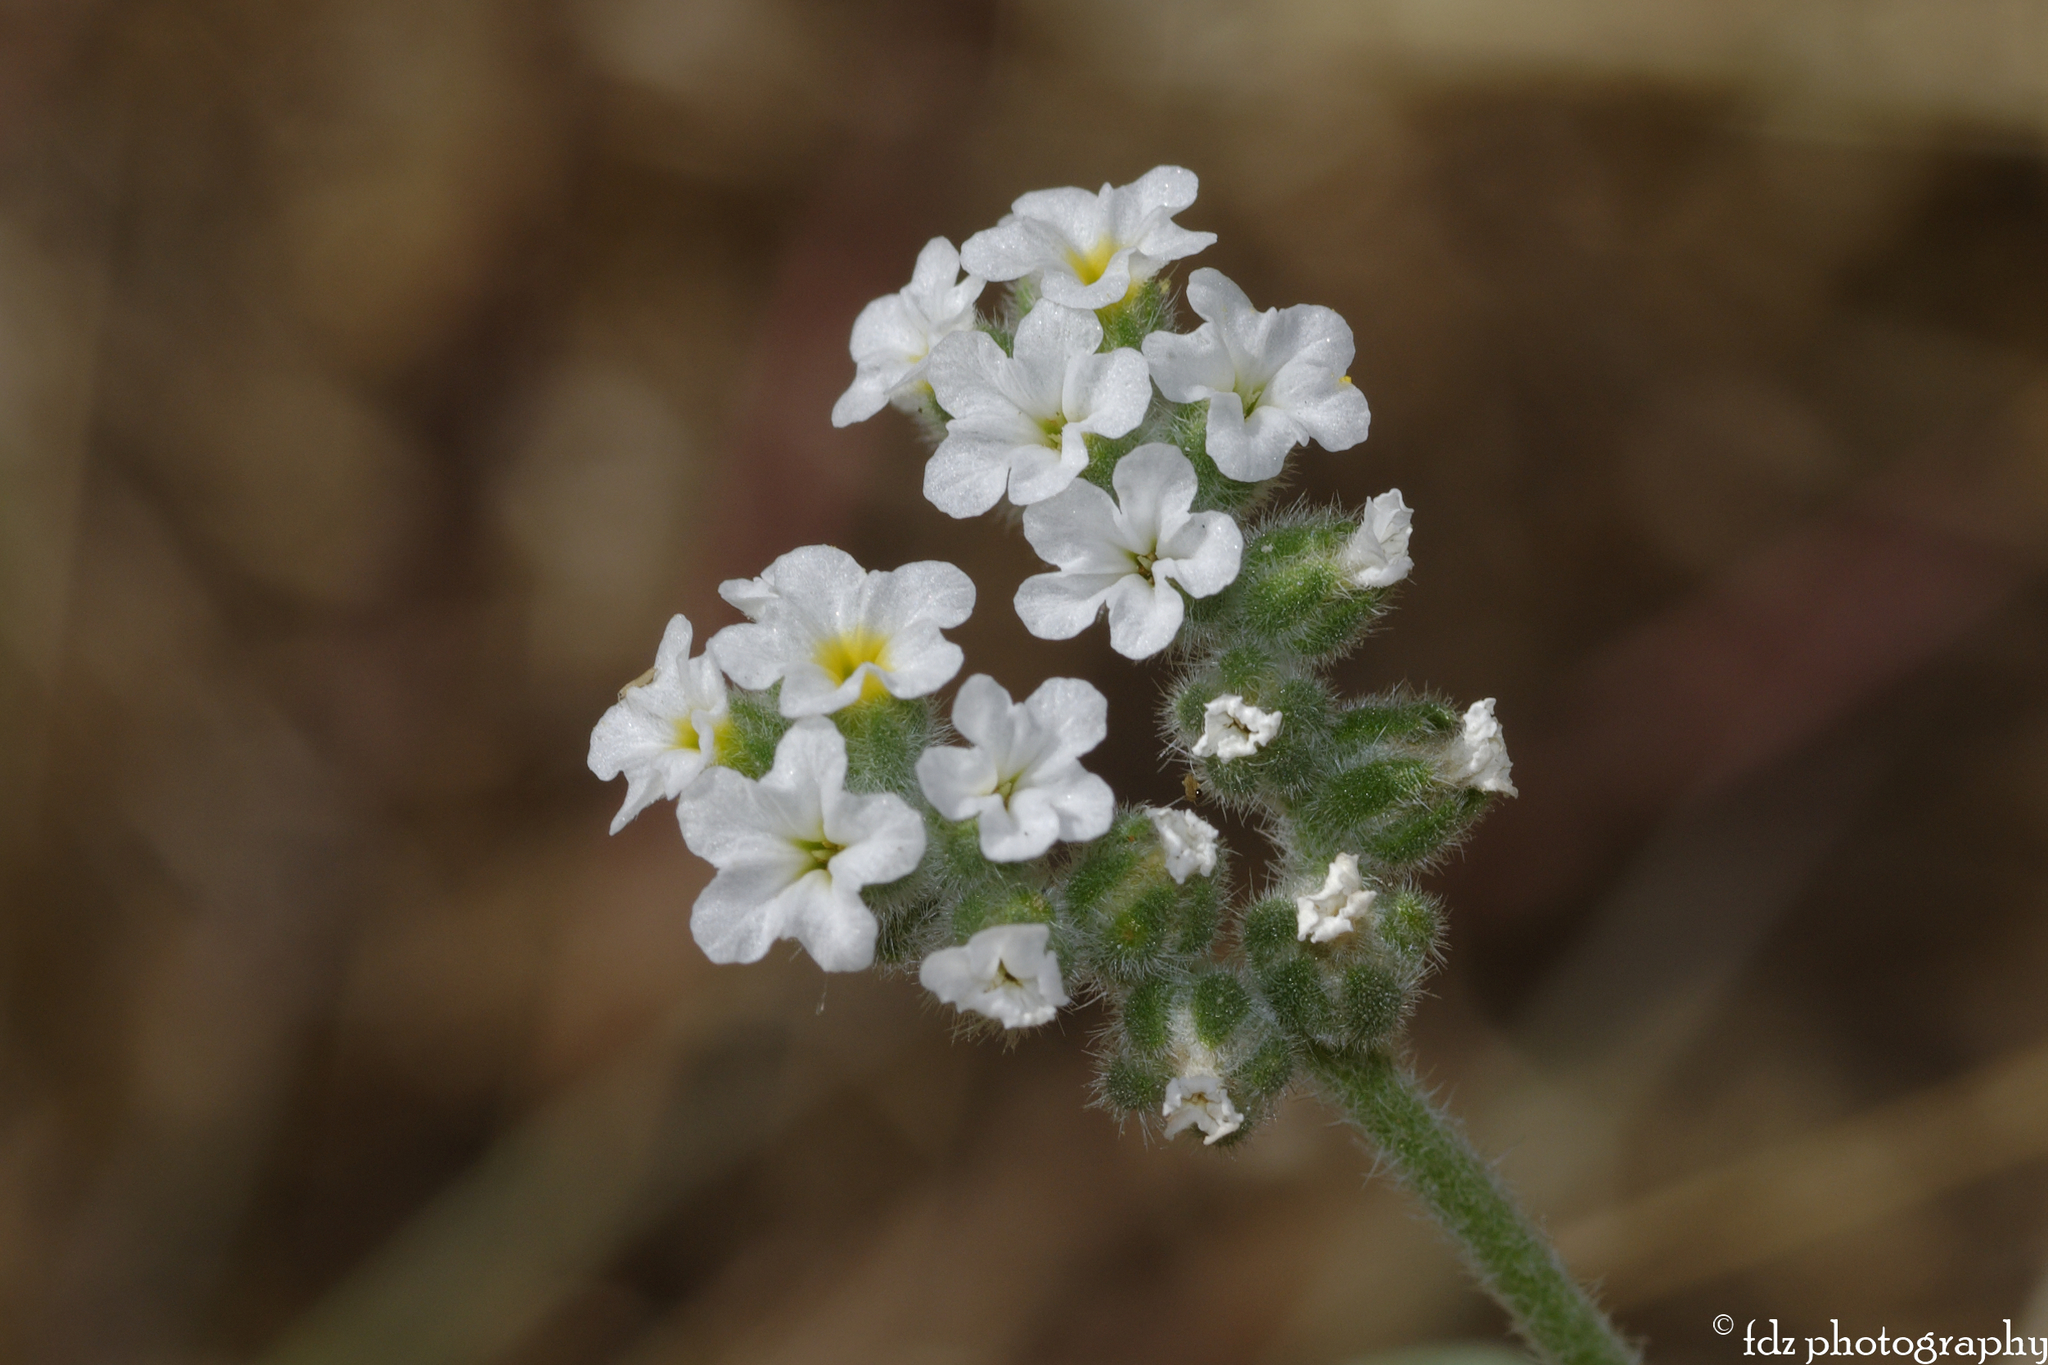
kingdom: Plantae
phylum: Tracheophyta
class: Magnoliopsida
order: Boraginales
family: Heliotropiaceae
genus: Heliotropium
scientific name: Heliotropium europaeum
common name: European heliotrope
